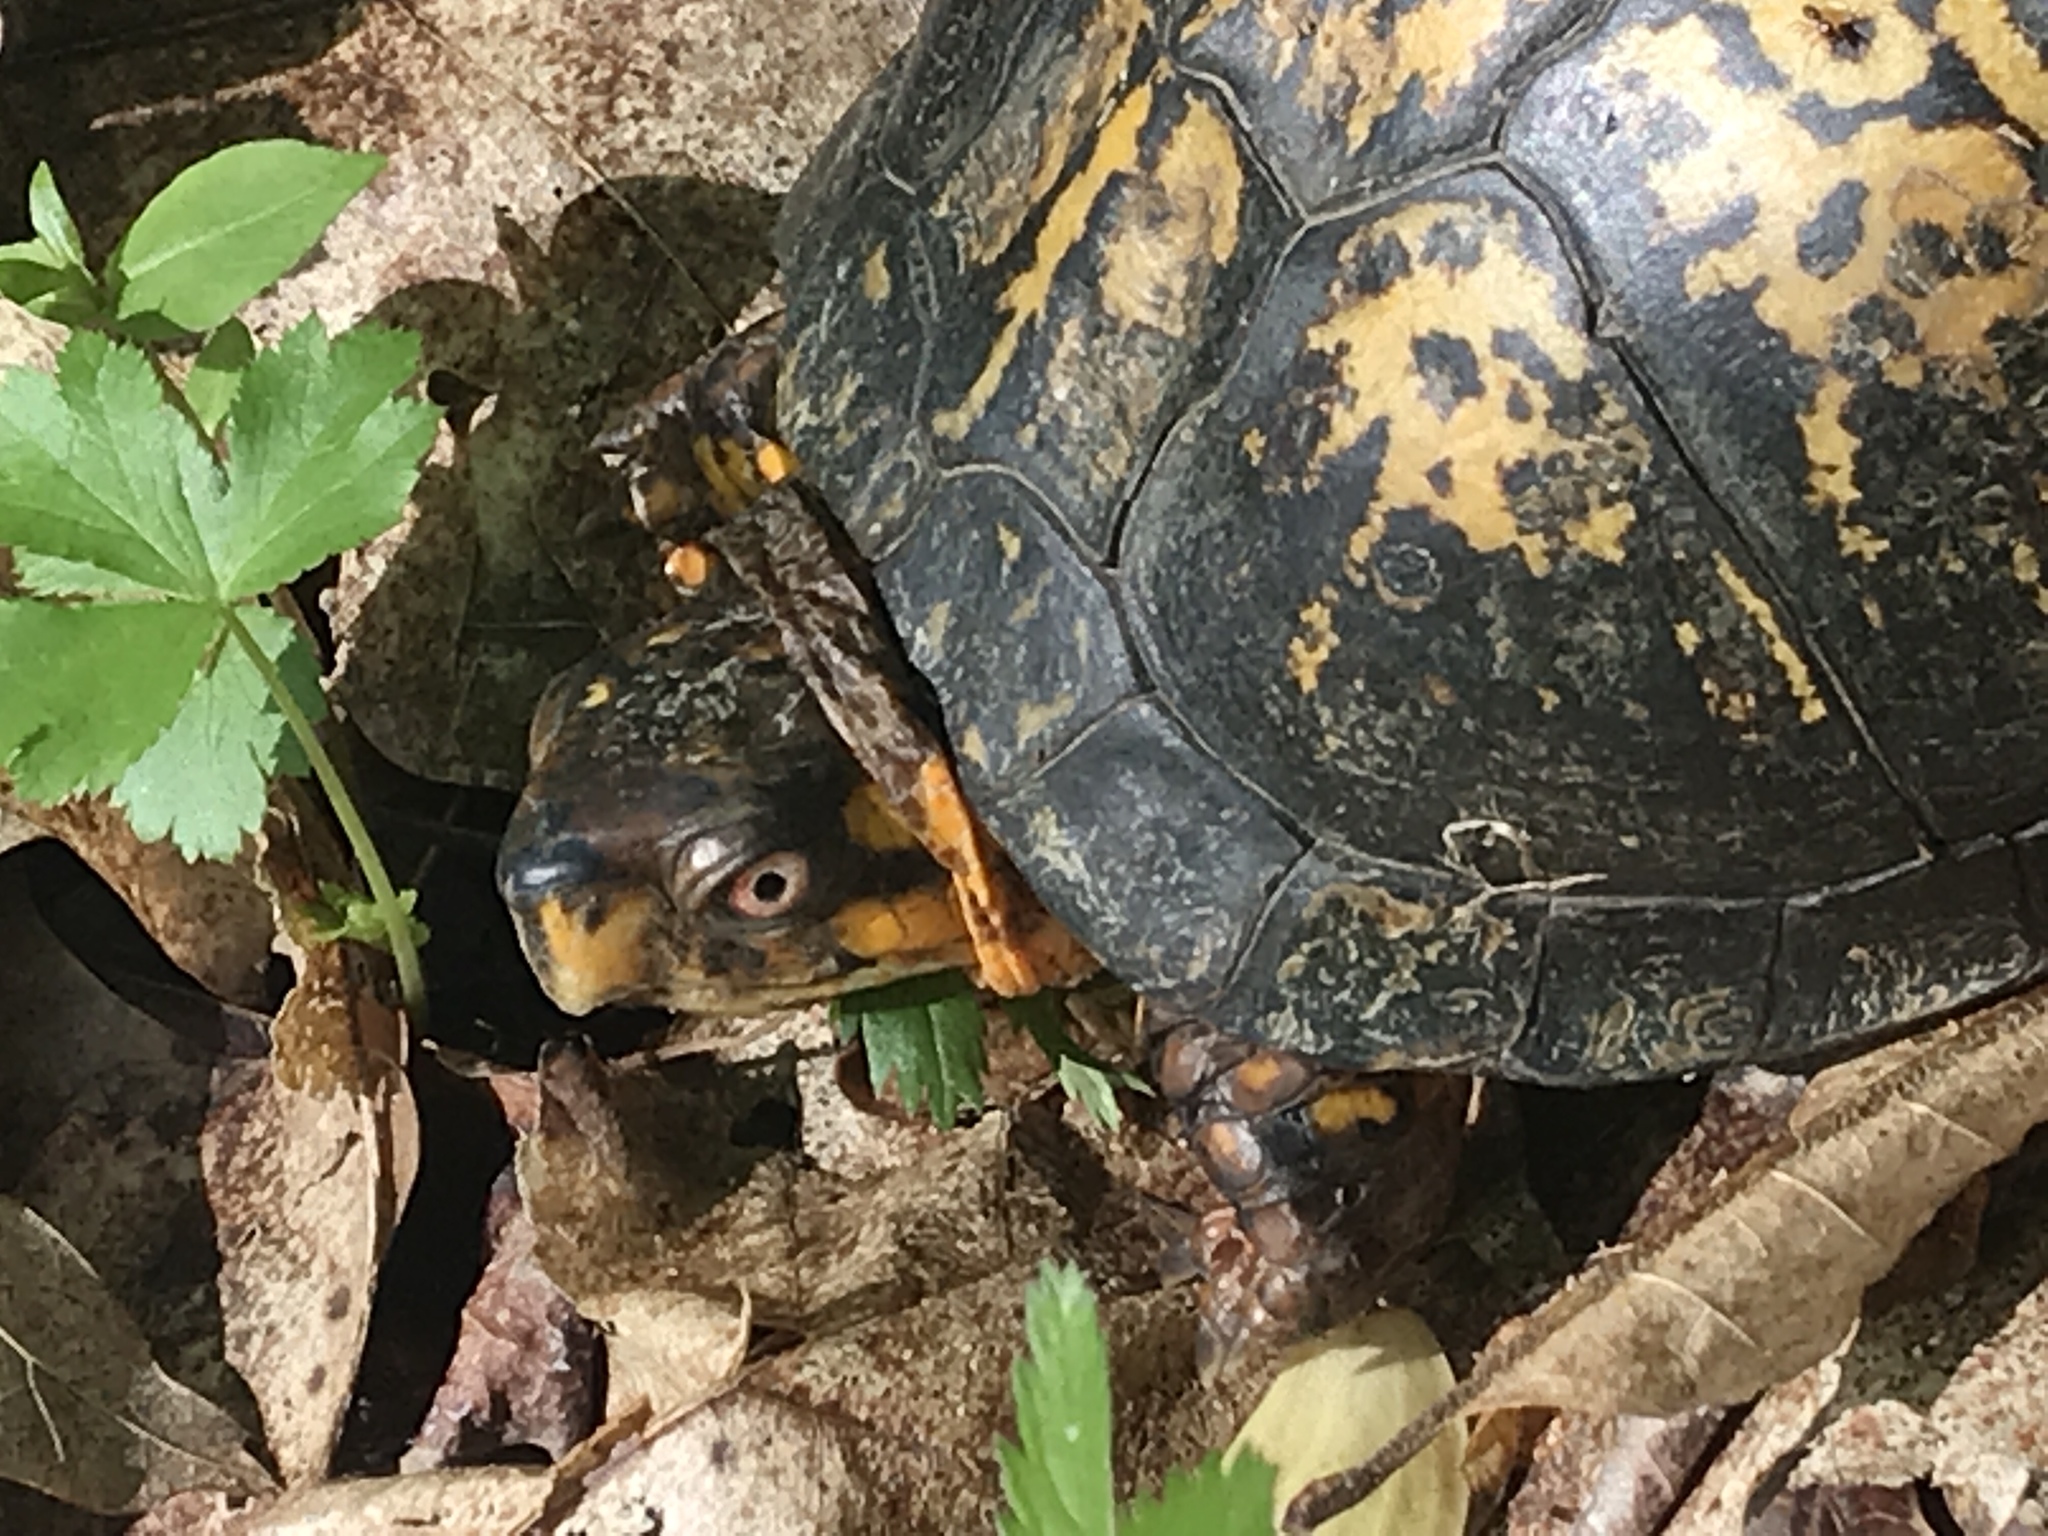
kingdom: Animalia
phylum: Chordata
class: Testudines
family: Emydidae
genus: Terrapene
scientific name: Terrapene carolina
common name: Common box turtle
